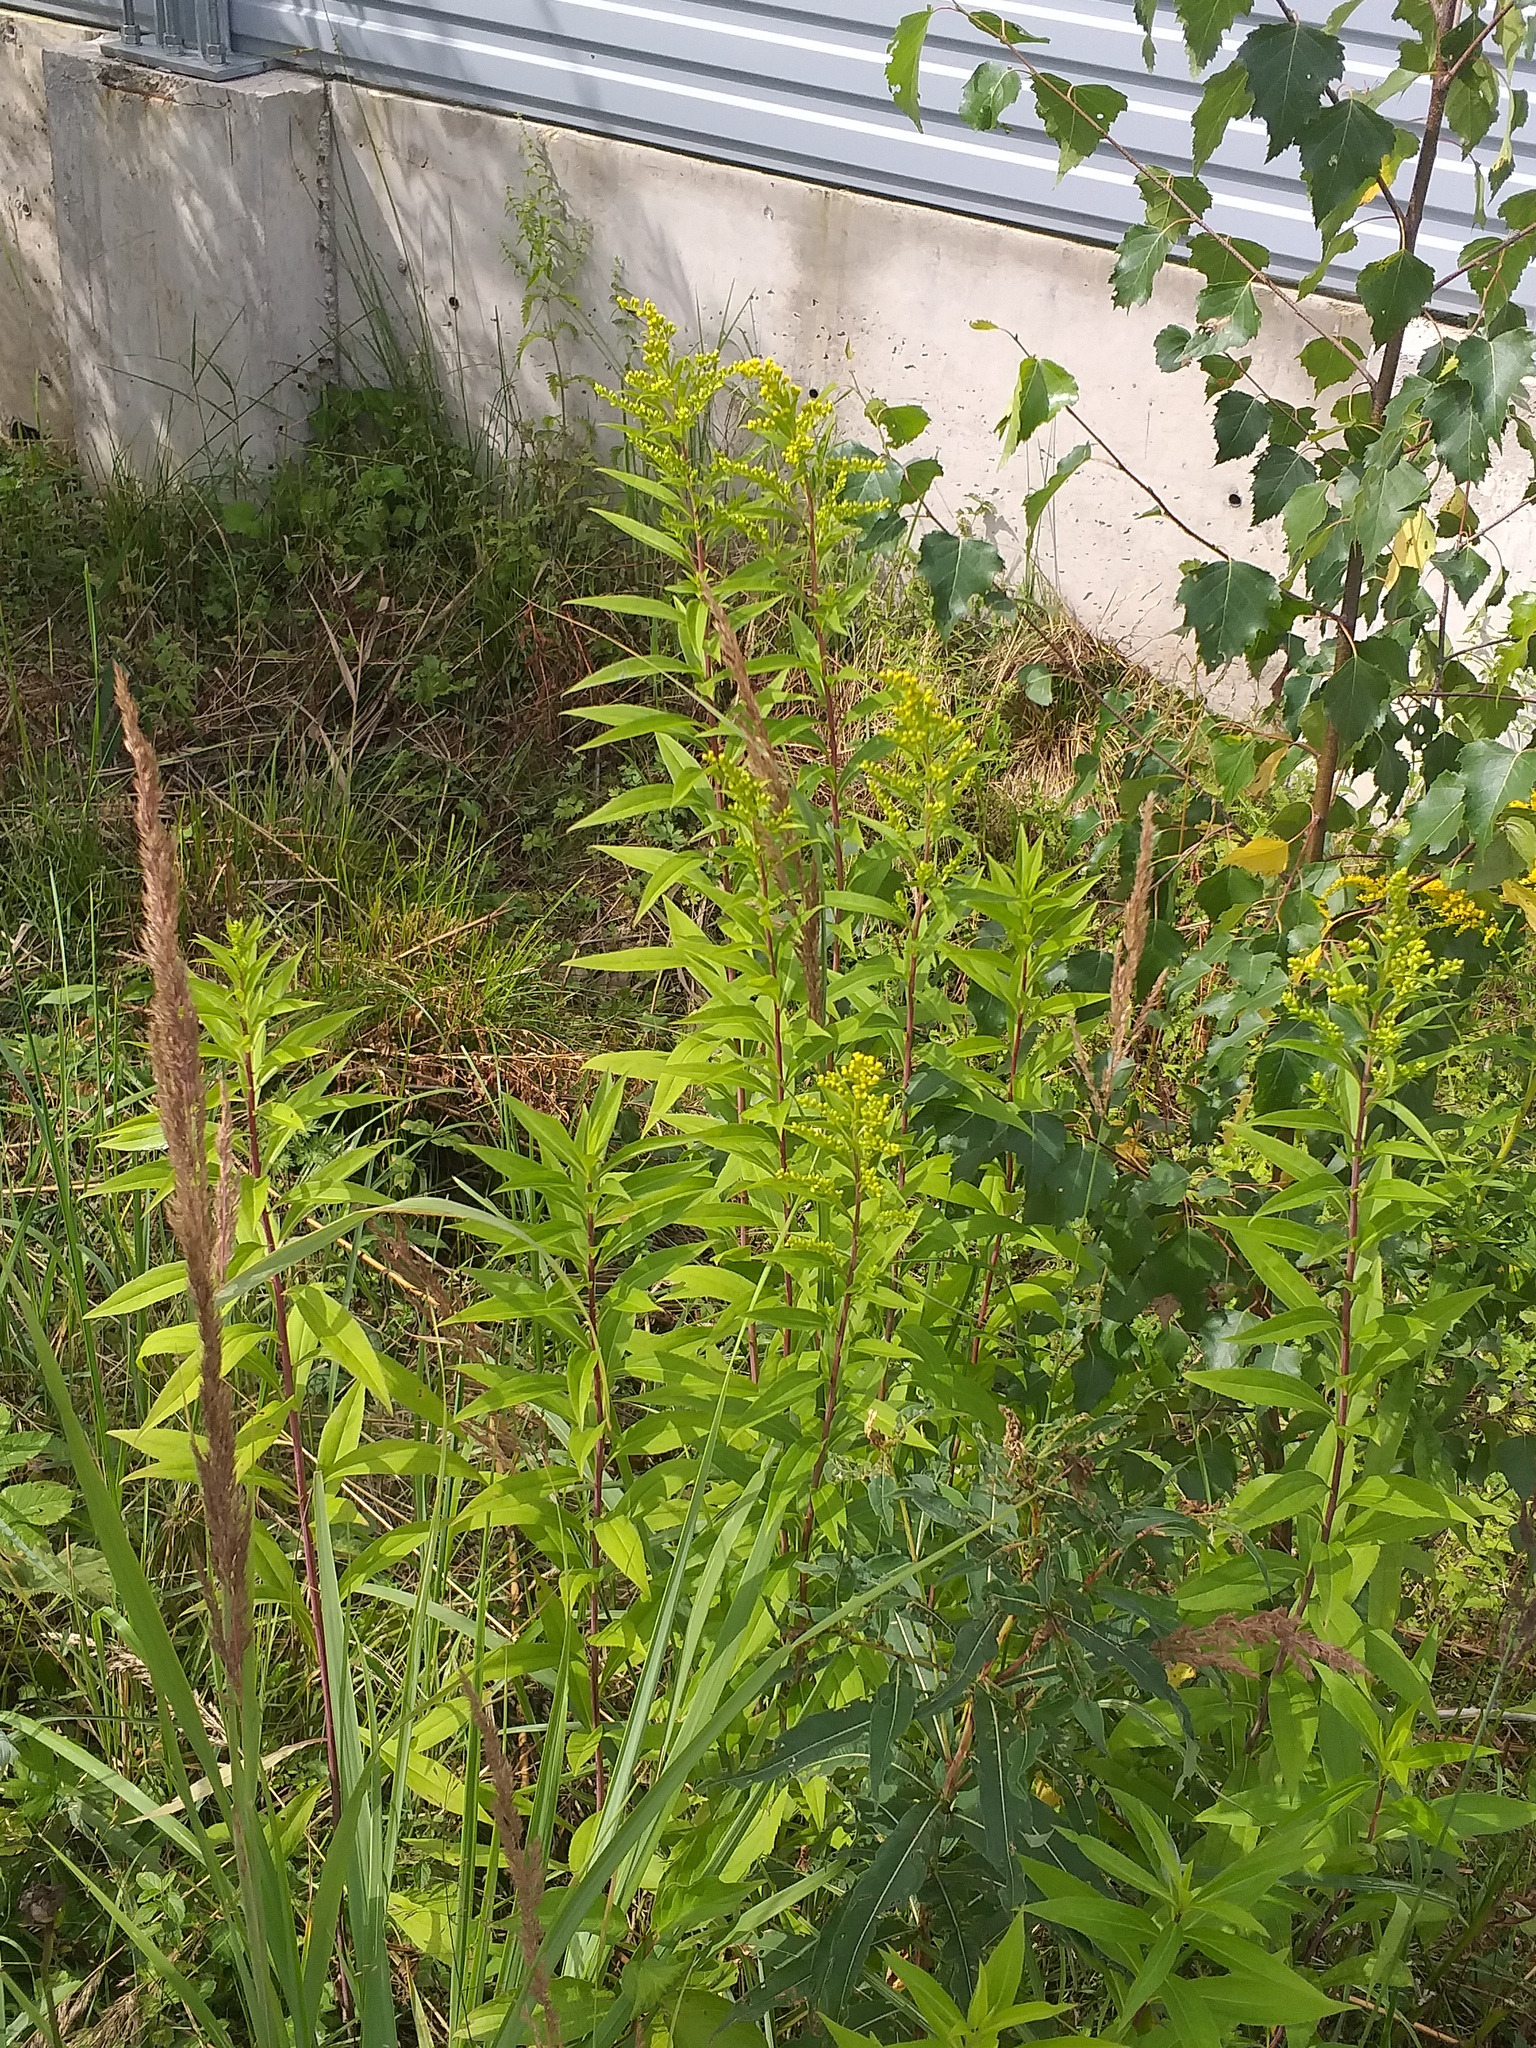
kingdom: Plantae
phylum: Tracheophyta
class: Magnoliopsida
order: Asterales
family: Asteraceae
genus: Solidago
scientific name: Solidago gigantea
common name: Giant goldenrod
